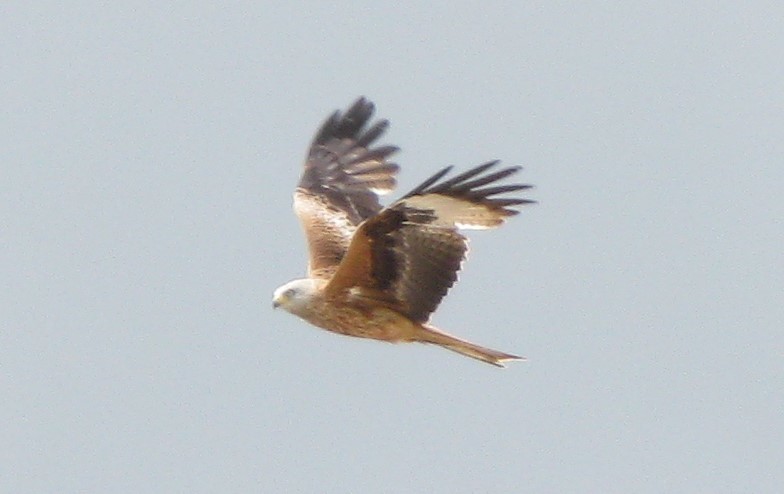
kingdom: Animalia
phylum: Chordata
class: Aves
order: Accipitriformes
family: Accipitridae
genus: Milvus
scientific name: Milvus milvus
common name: Red kite
